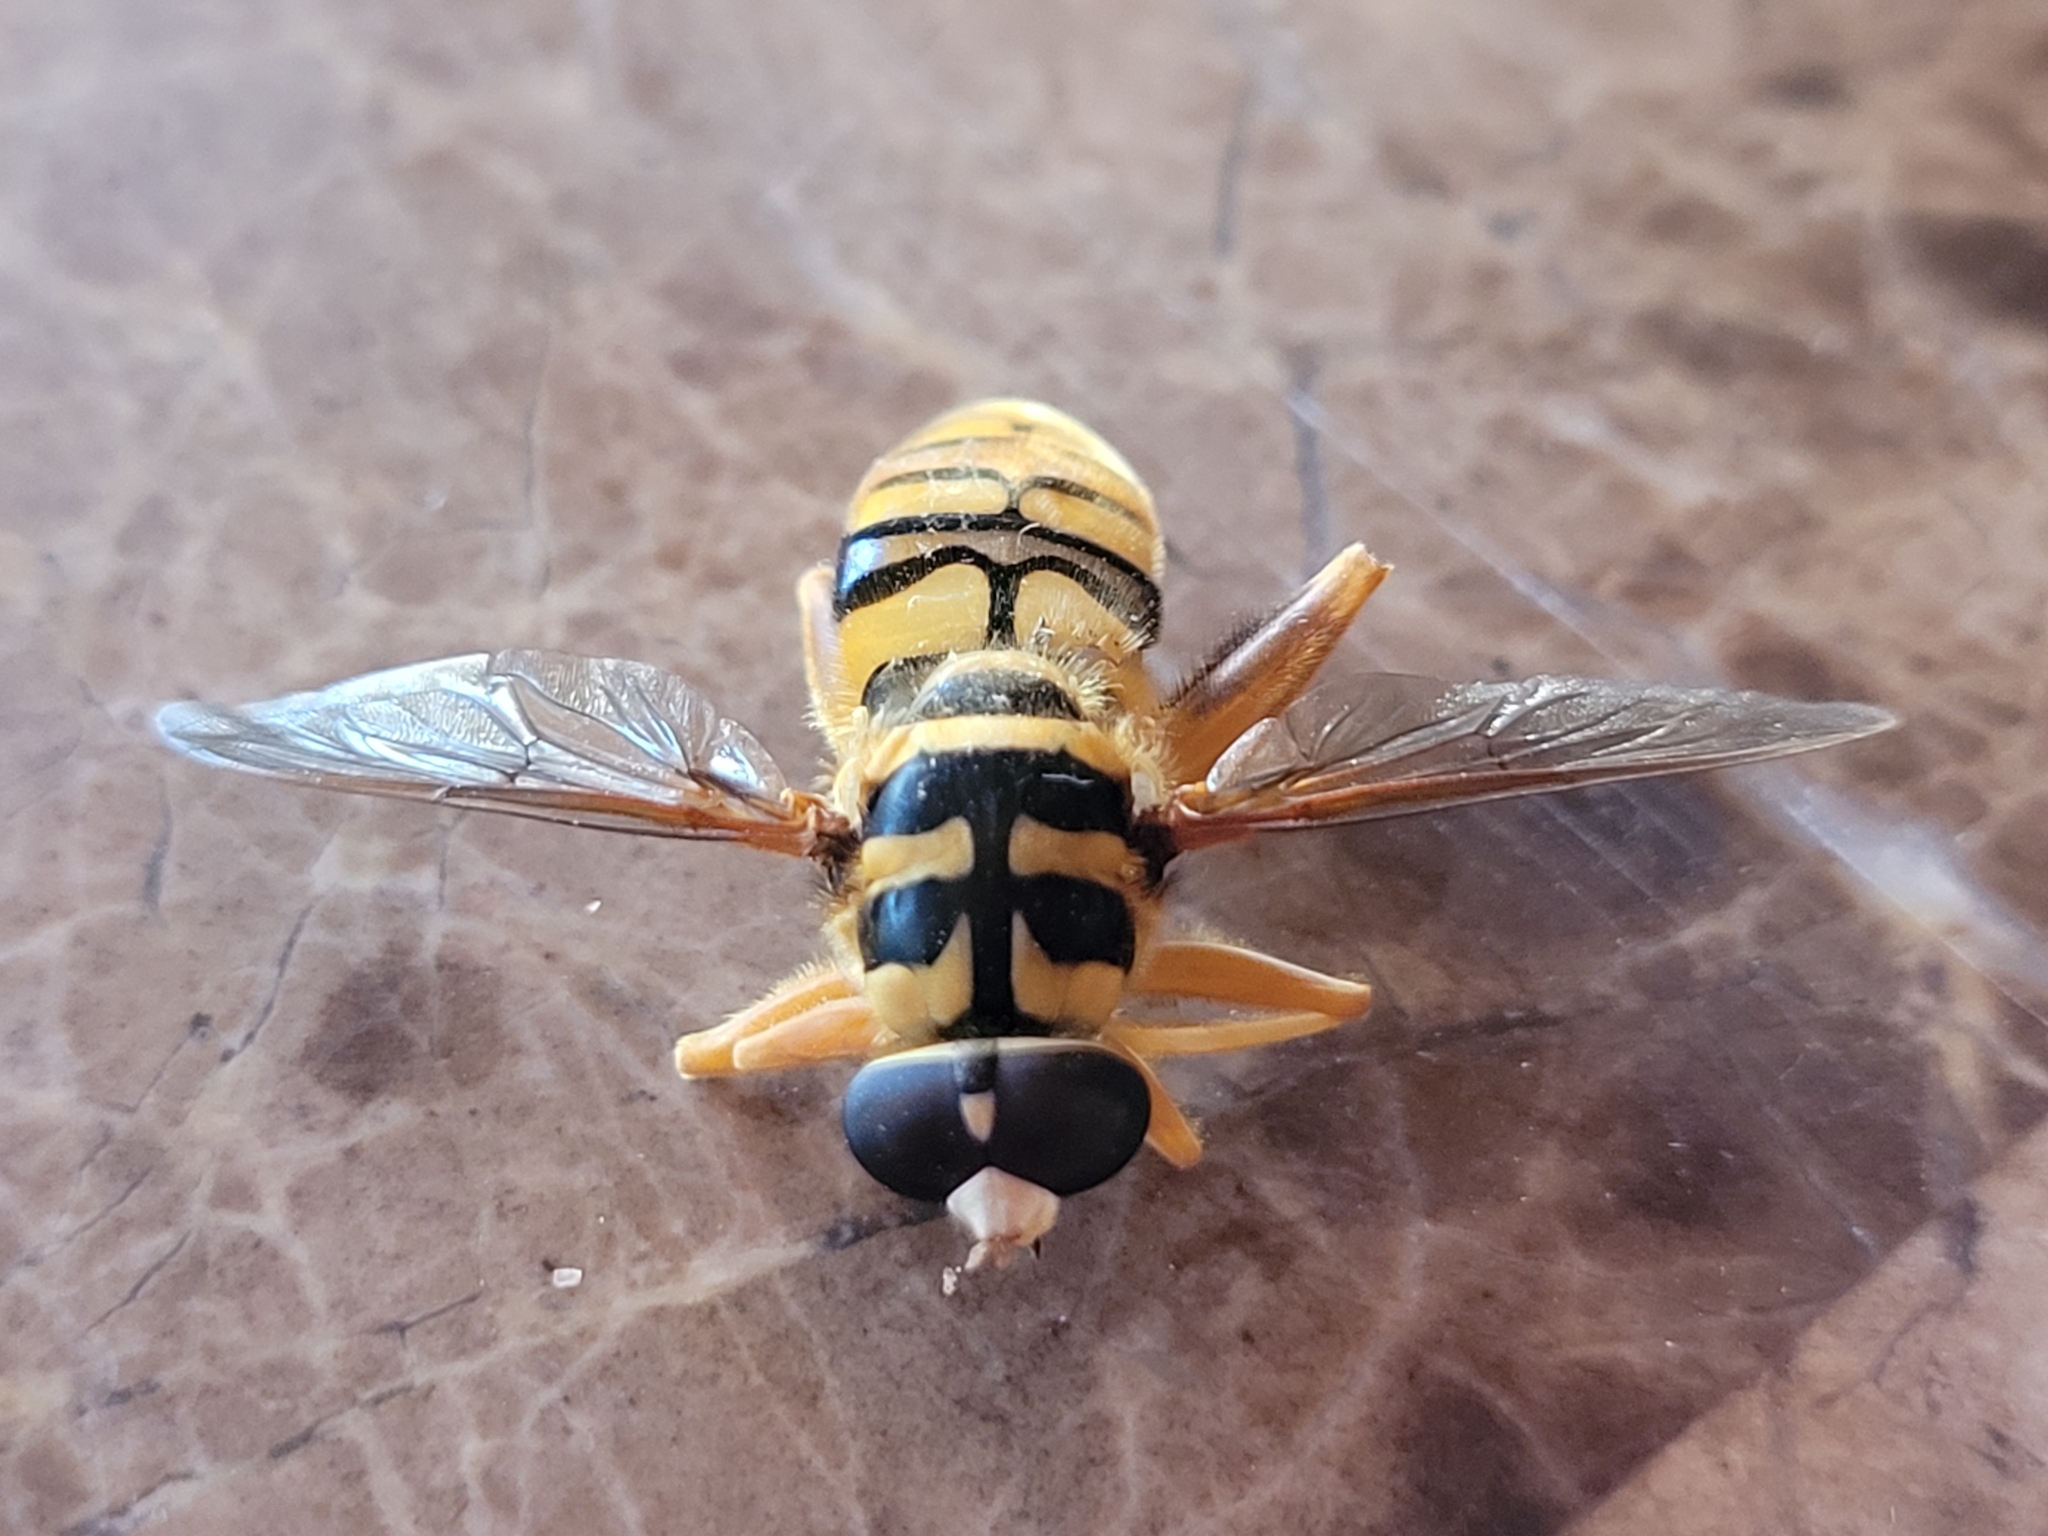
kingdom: Animalia
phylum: Arthropoda
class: Insecta
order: Diptera
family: Syrphidae
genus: Milesia
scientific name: Milesia virginiensis
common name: Virginia giant
